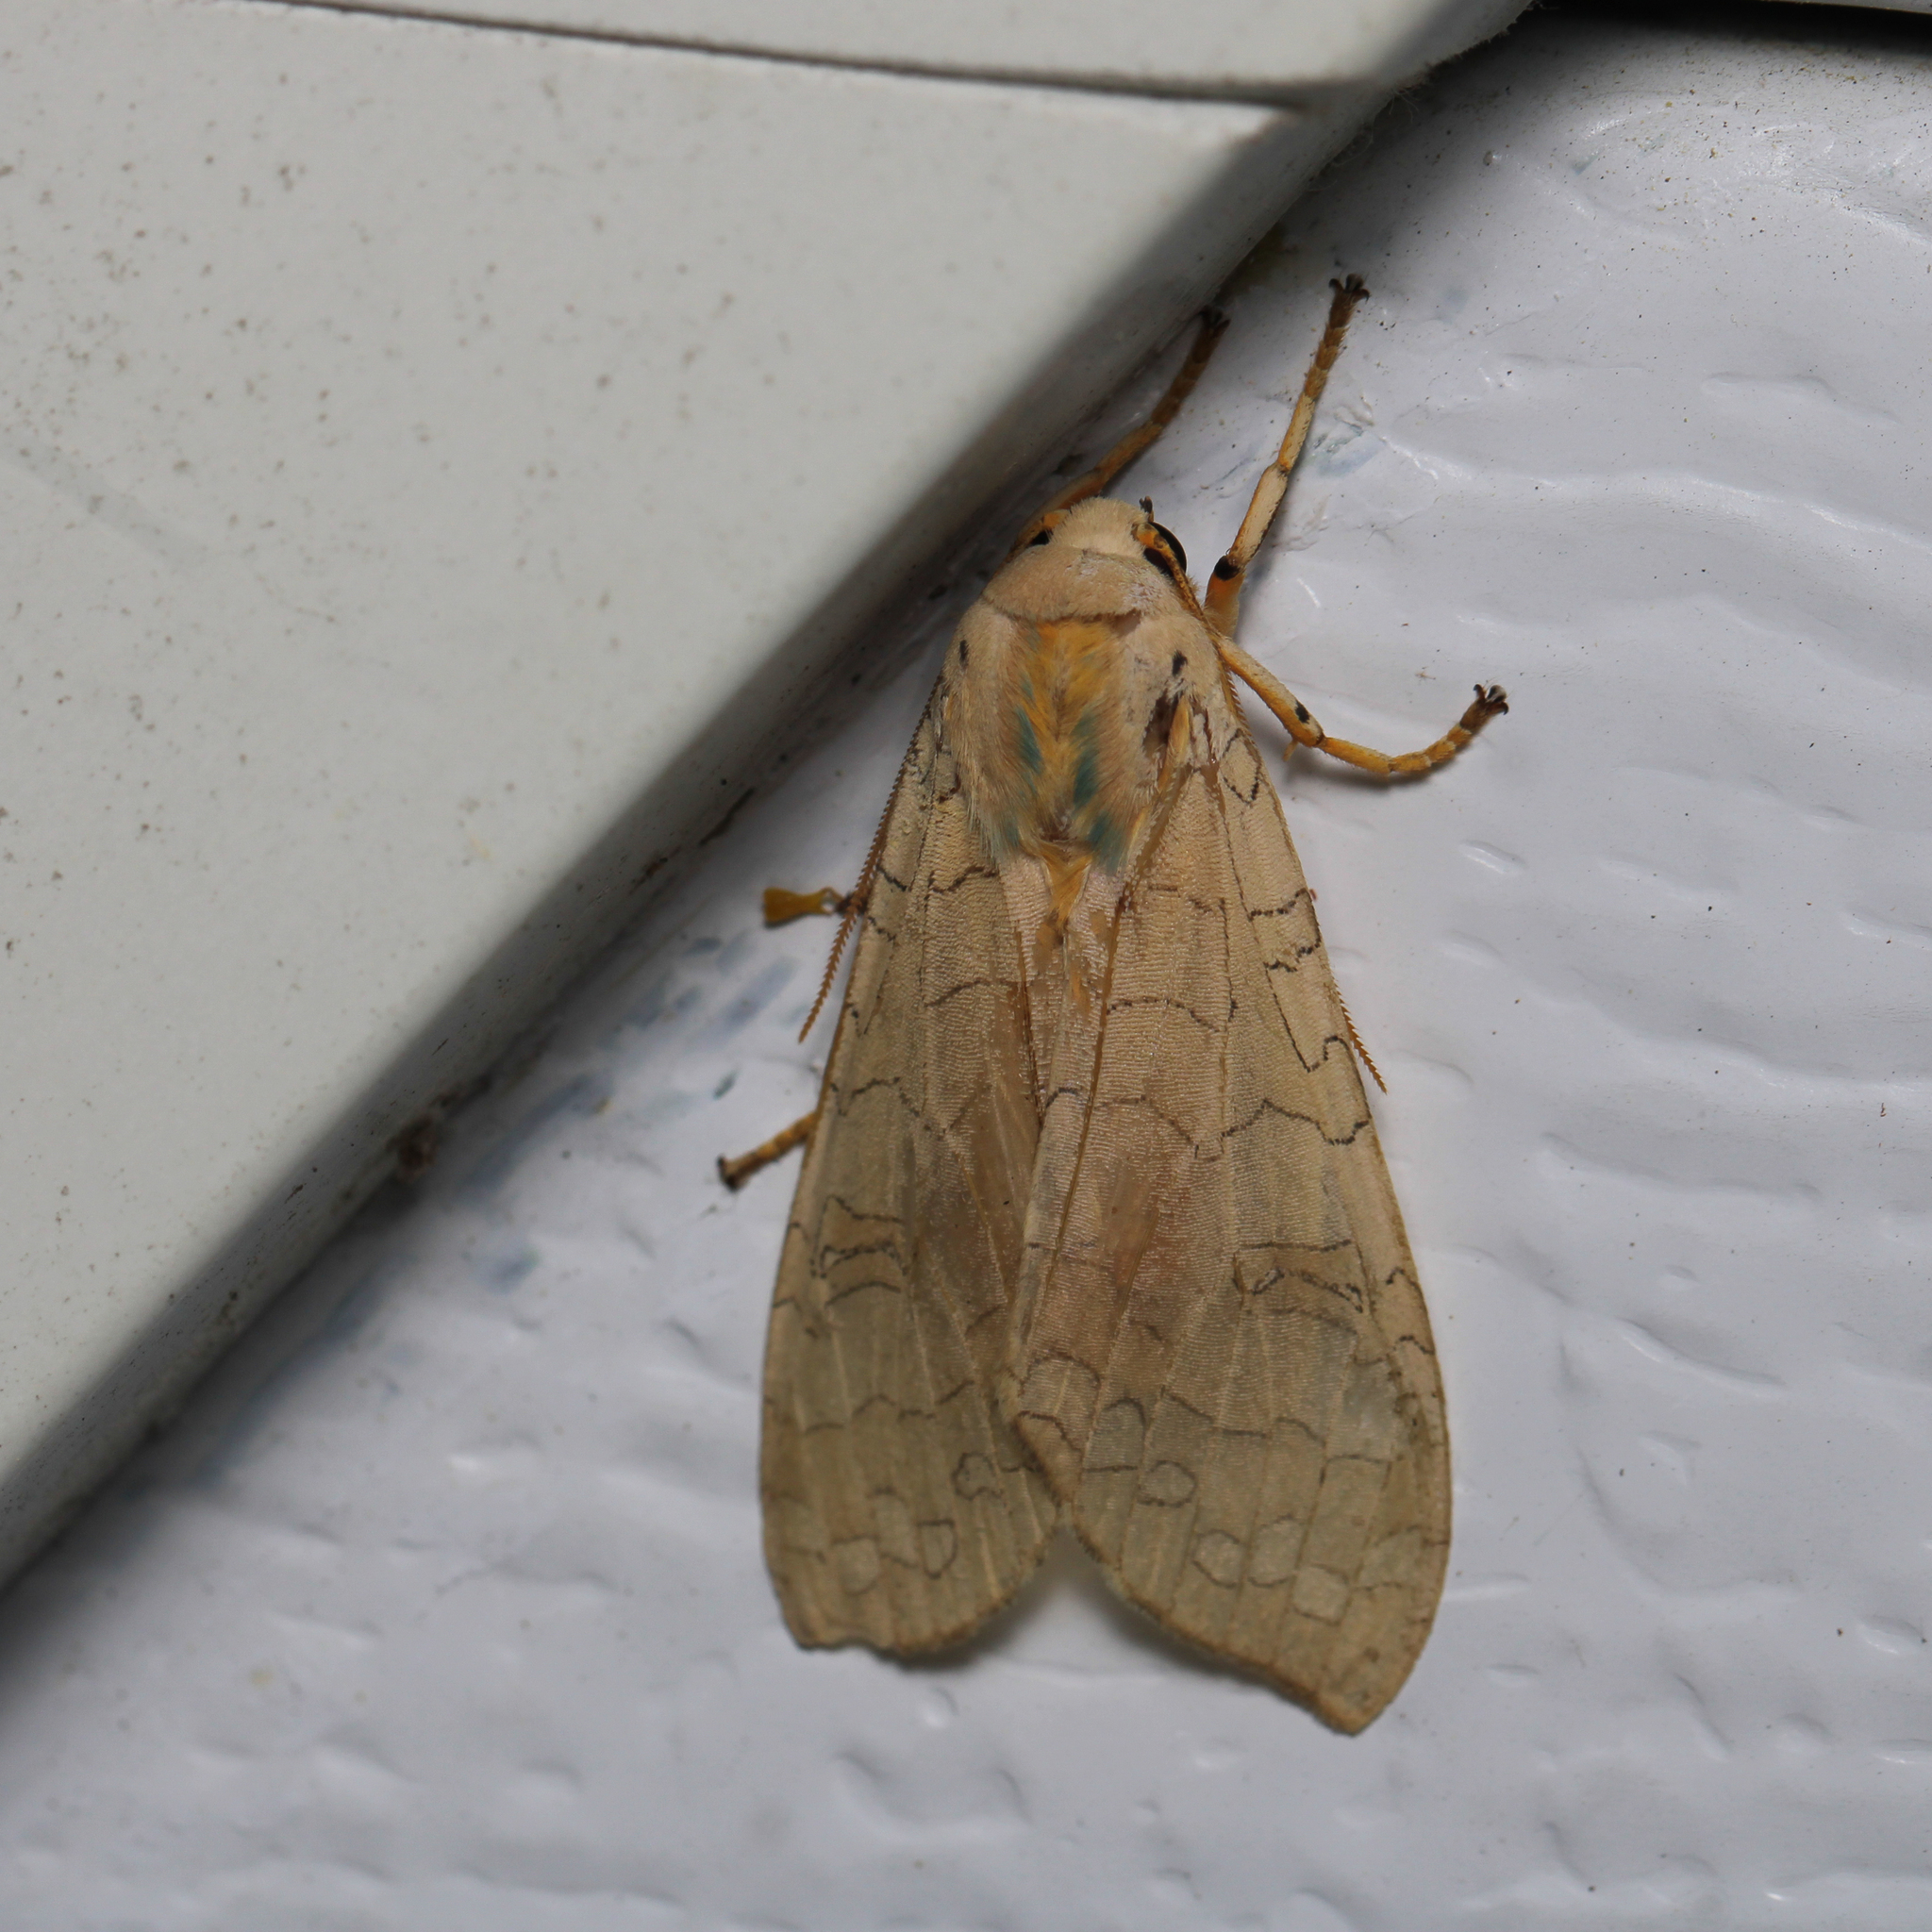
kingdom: Animalia
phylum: Arthropoda
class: Insecta
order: Lepidoptera
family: Erebidae
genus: Halysidota
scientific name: Halysidota
